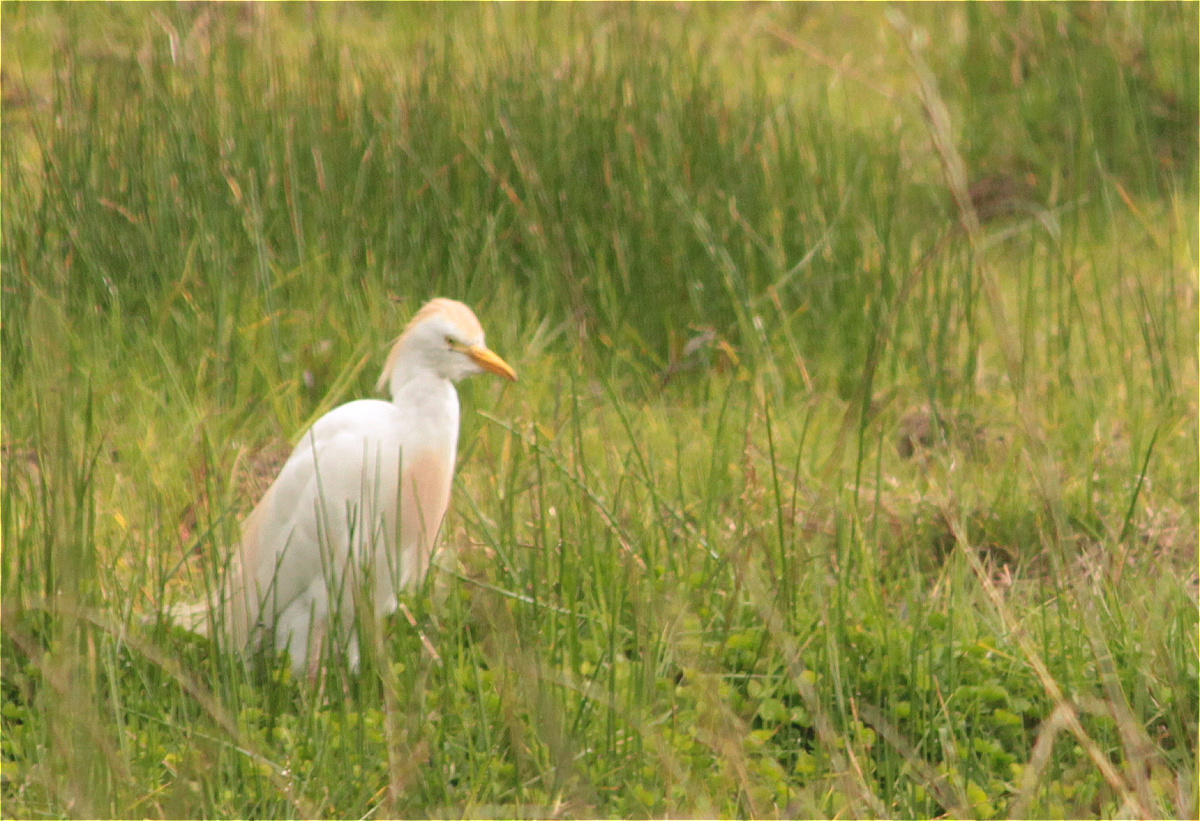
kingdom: Animalia
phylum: Chordata
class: Aves
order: Pelecaniformes
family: Ardeidae
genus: Bubulcus
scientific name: Bubulcus ibis
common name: Cattle egret
